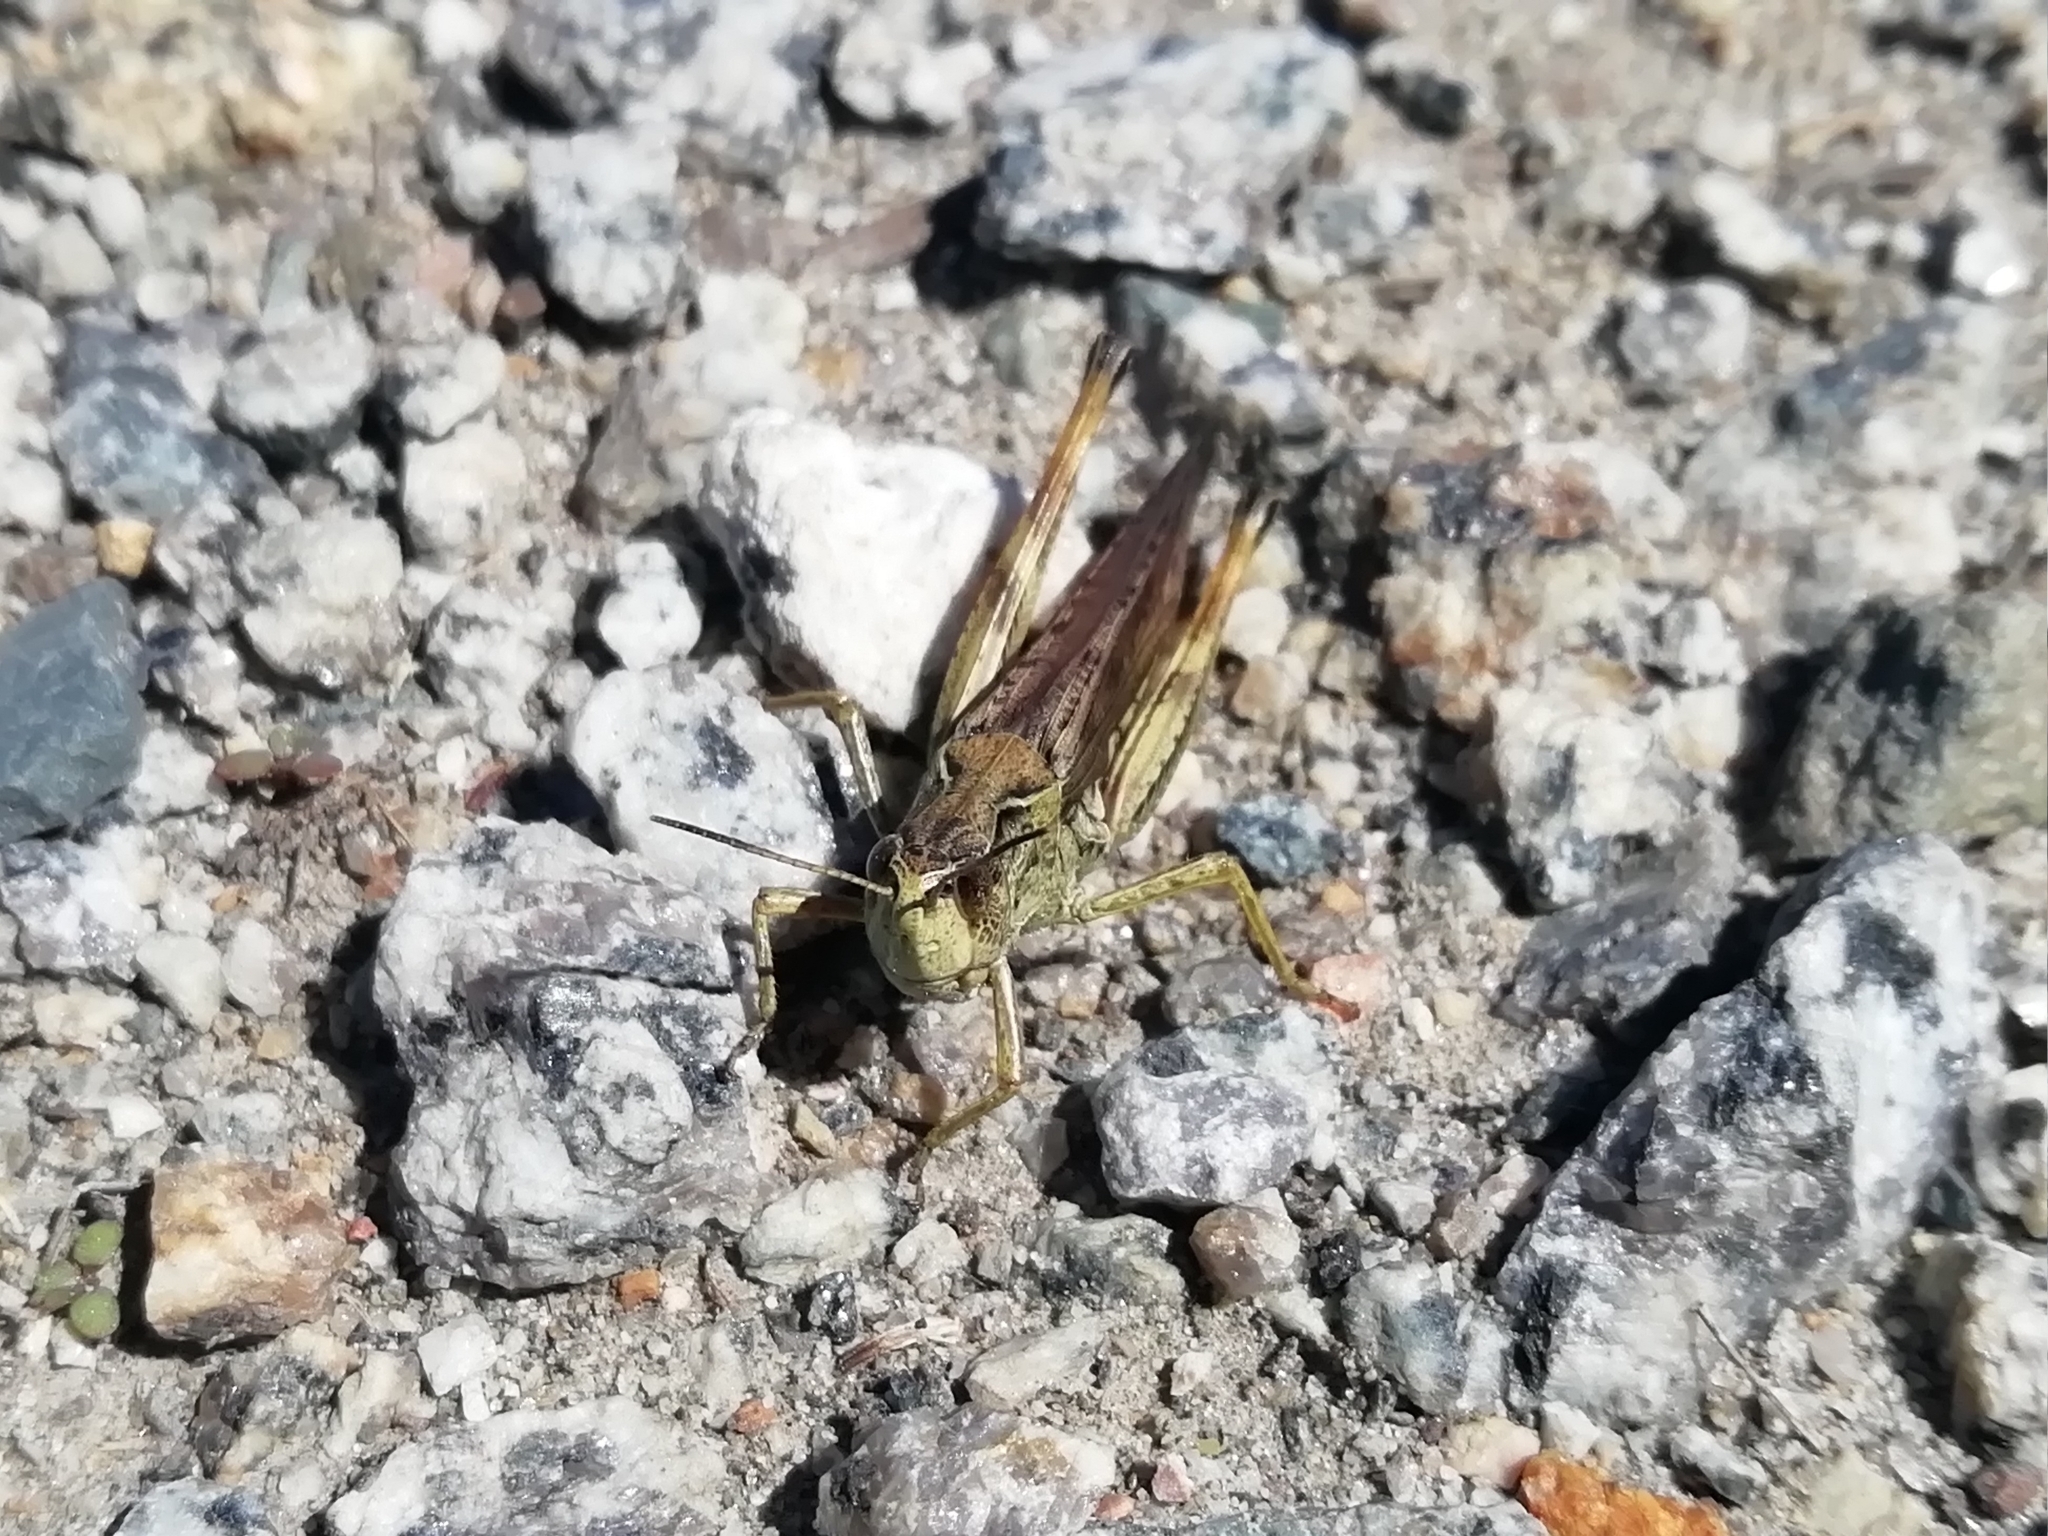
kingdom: Animalia
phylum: Arthropoda
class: Insecta
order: Orthoptera
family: Acrididae
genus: Stauroderus
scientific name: Stauroderus scalaris
